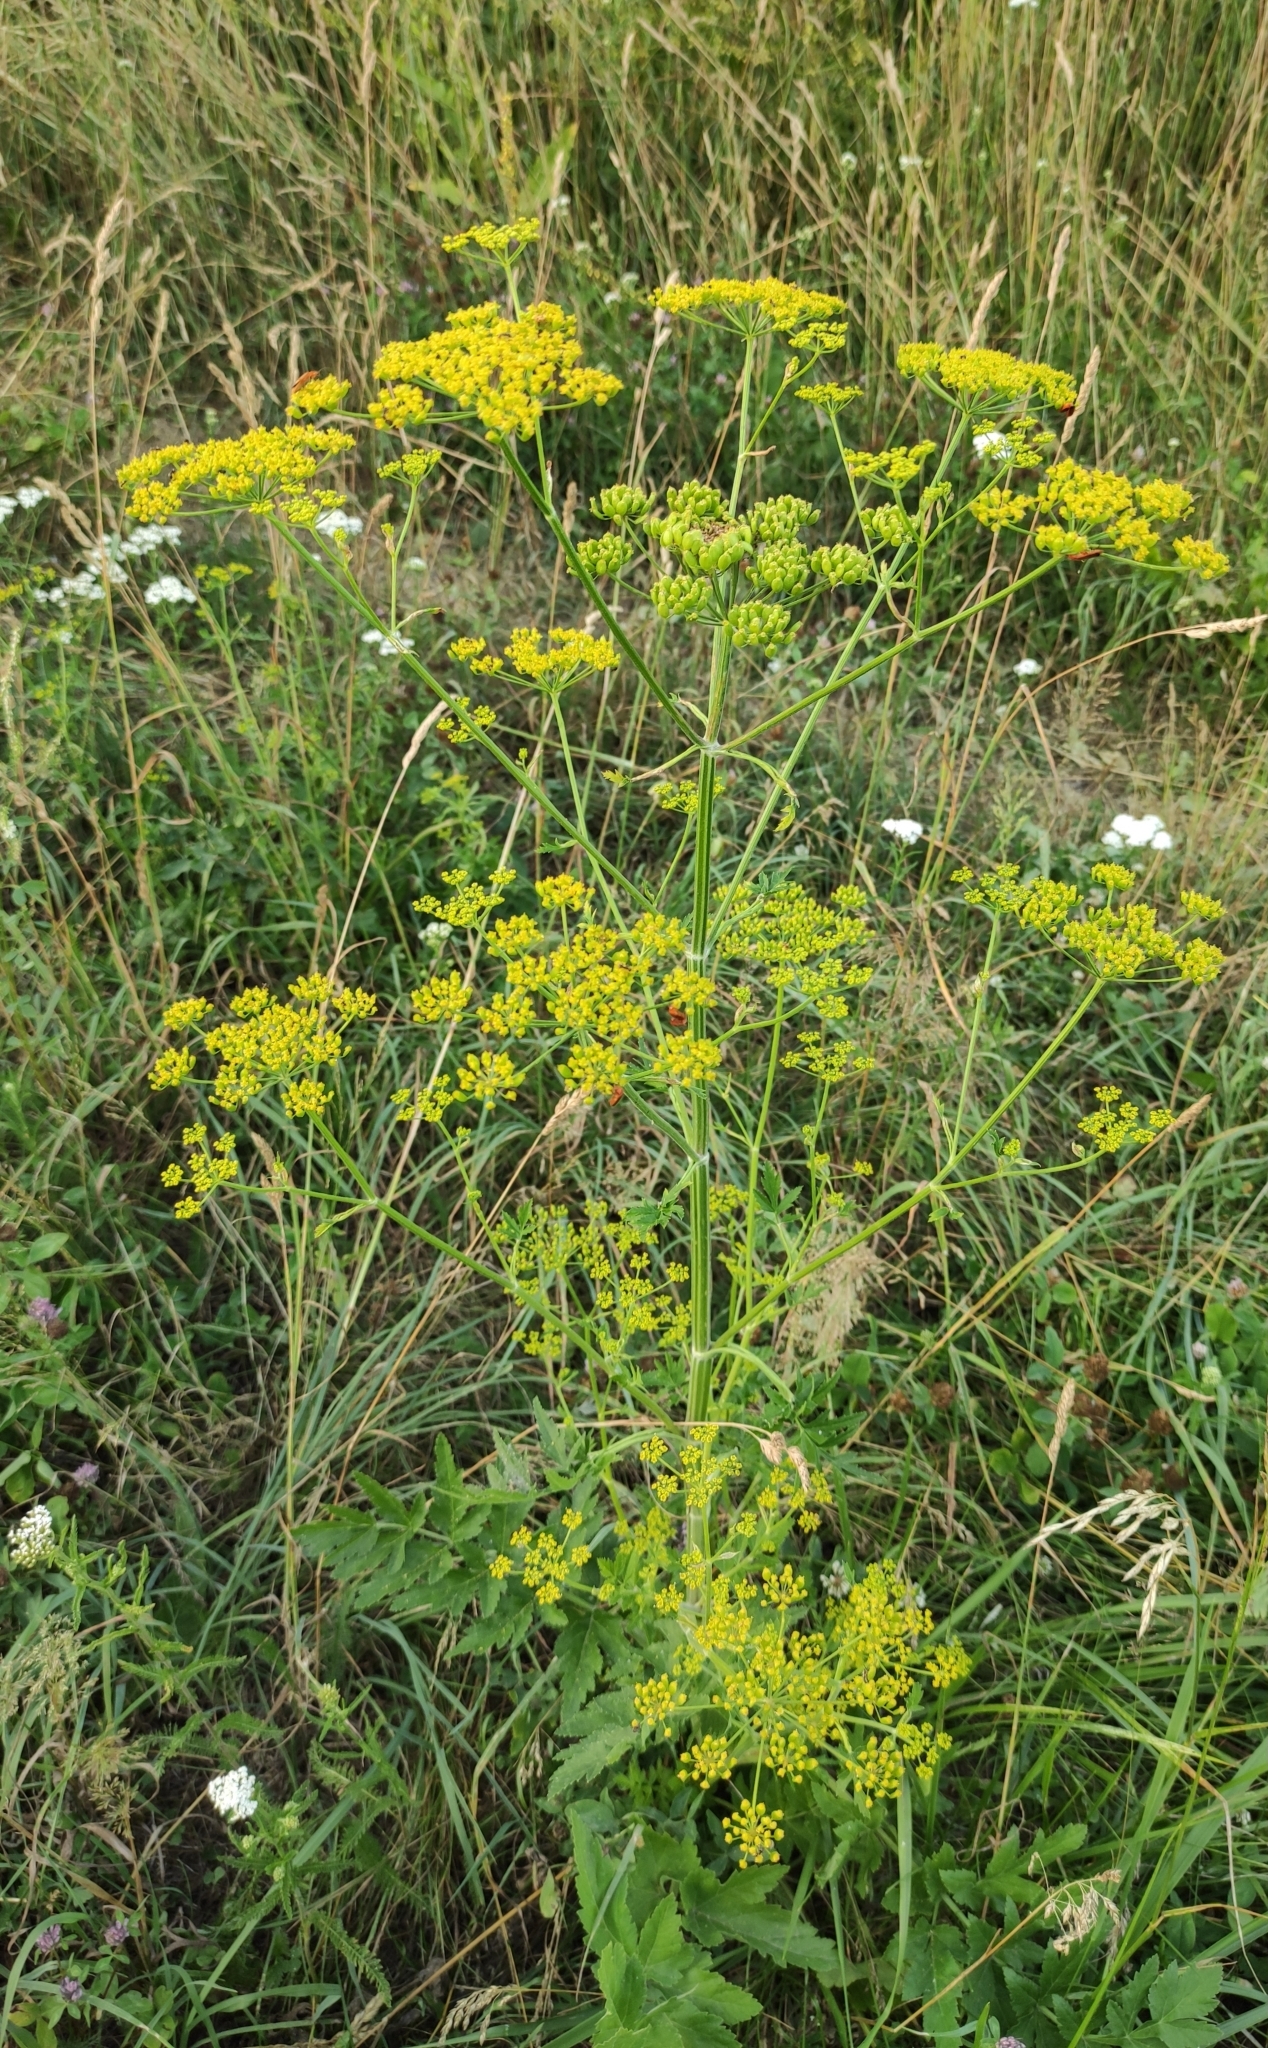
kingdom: Plantae
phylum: Tracheophyta
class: Magnoliopsida
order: Apiales
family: Apiaceae
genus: Pastinaca
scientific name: Pastinaca sativa
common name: Wild parsnip
